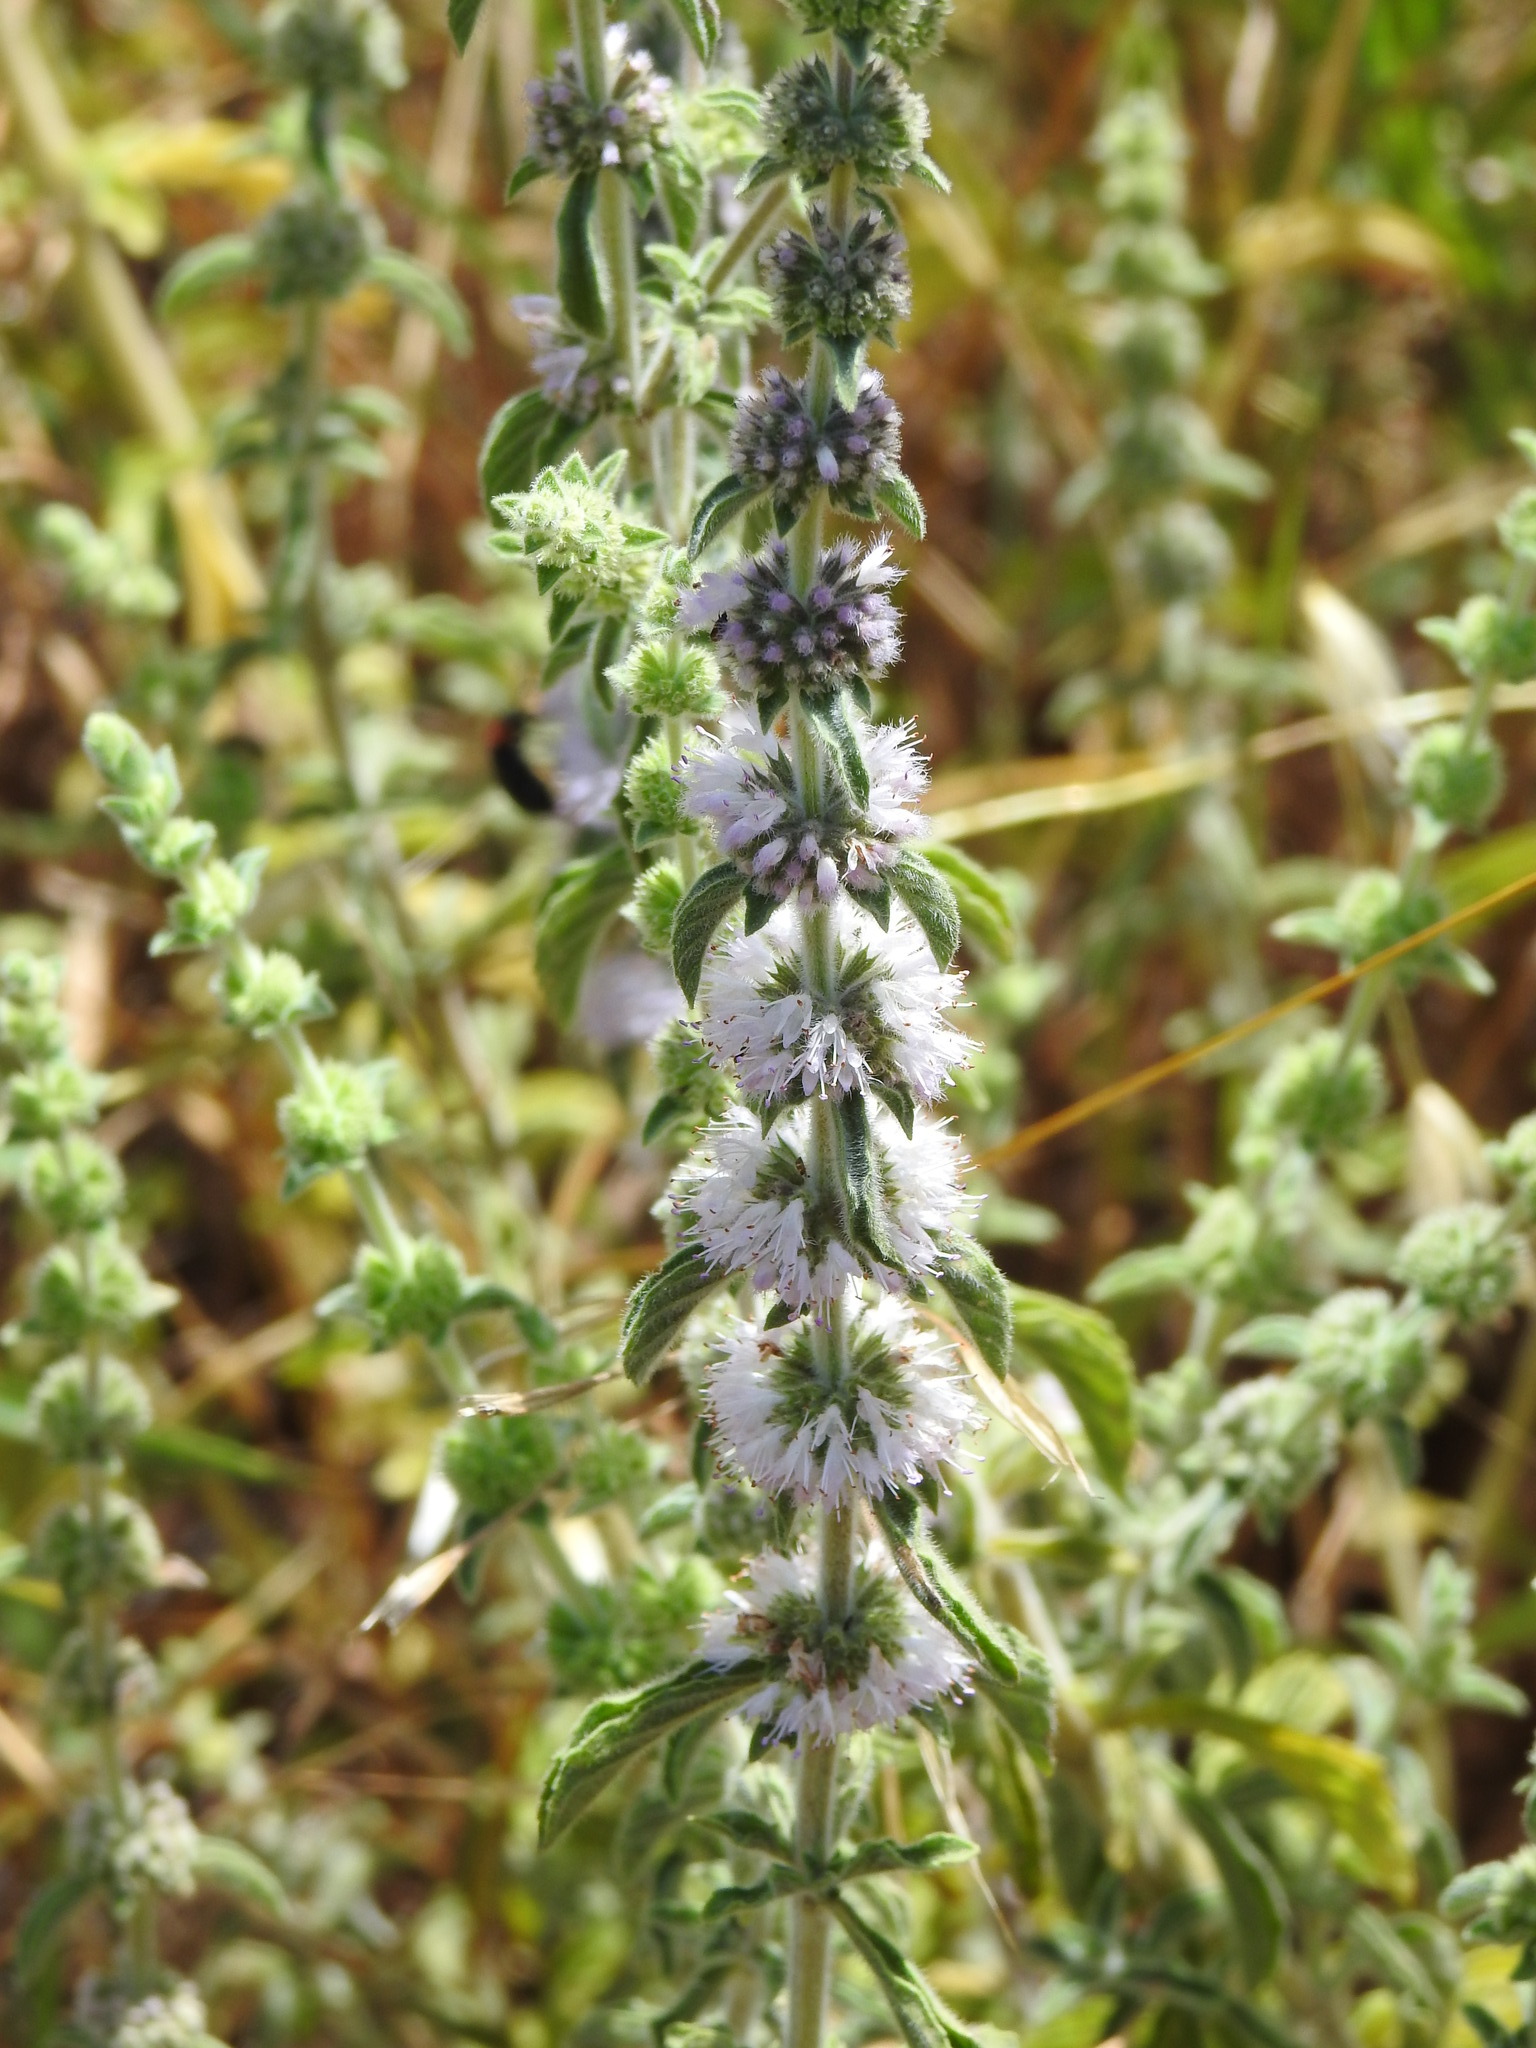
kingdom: Plantae
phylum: Tracheophyta
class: Magnoliopsida
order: Lamiales
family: Lamiaceae
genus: Mentha
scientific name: Mentha pulegium
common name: Pennyroyal
